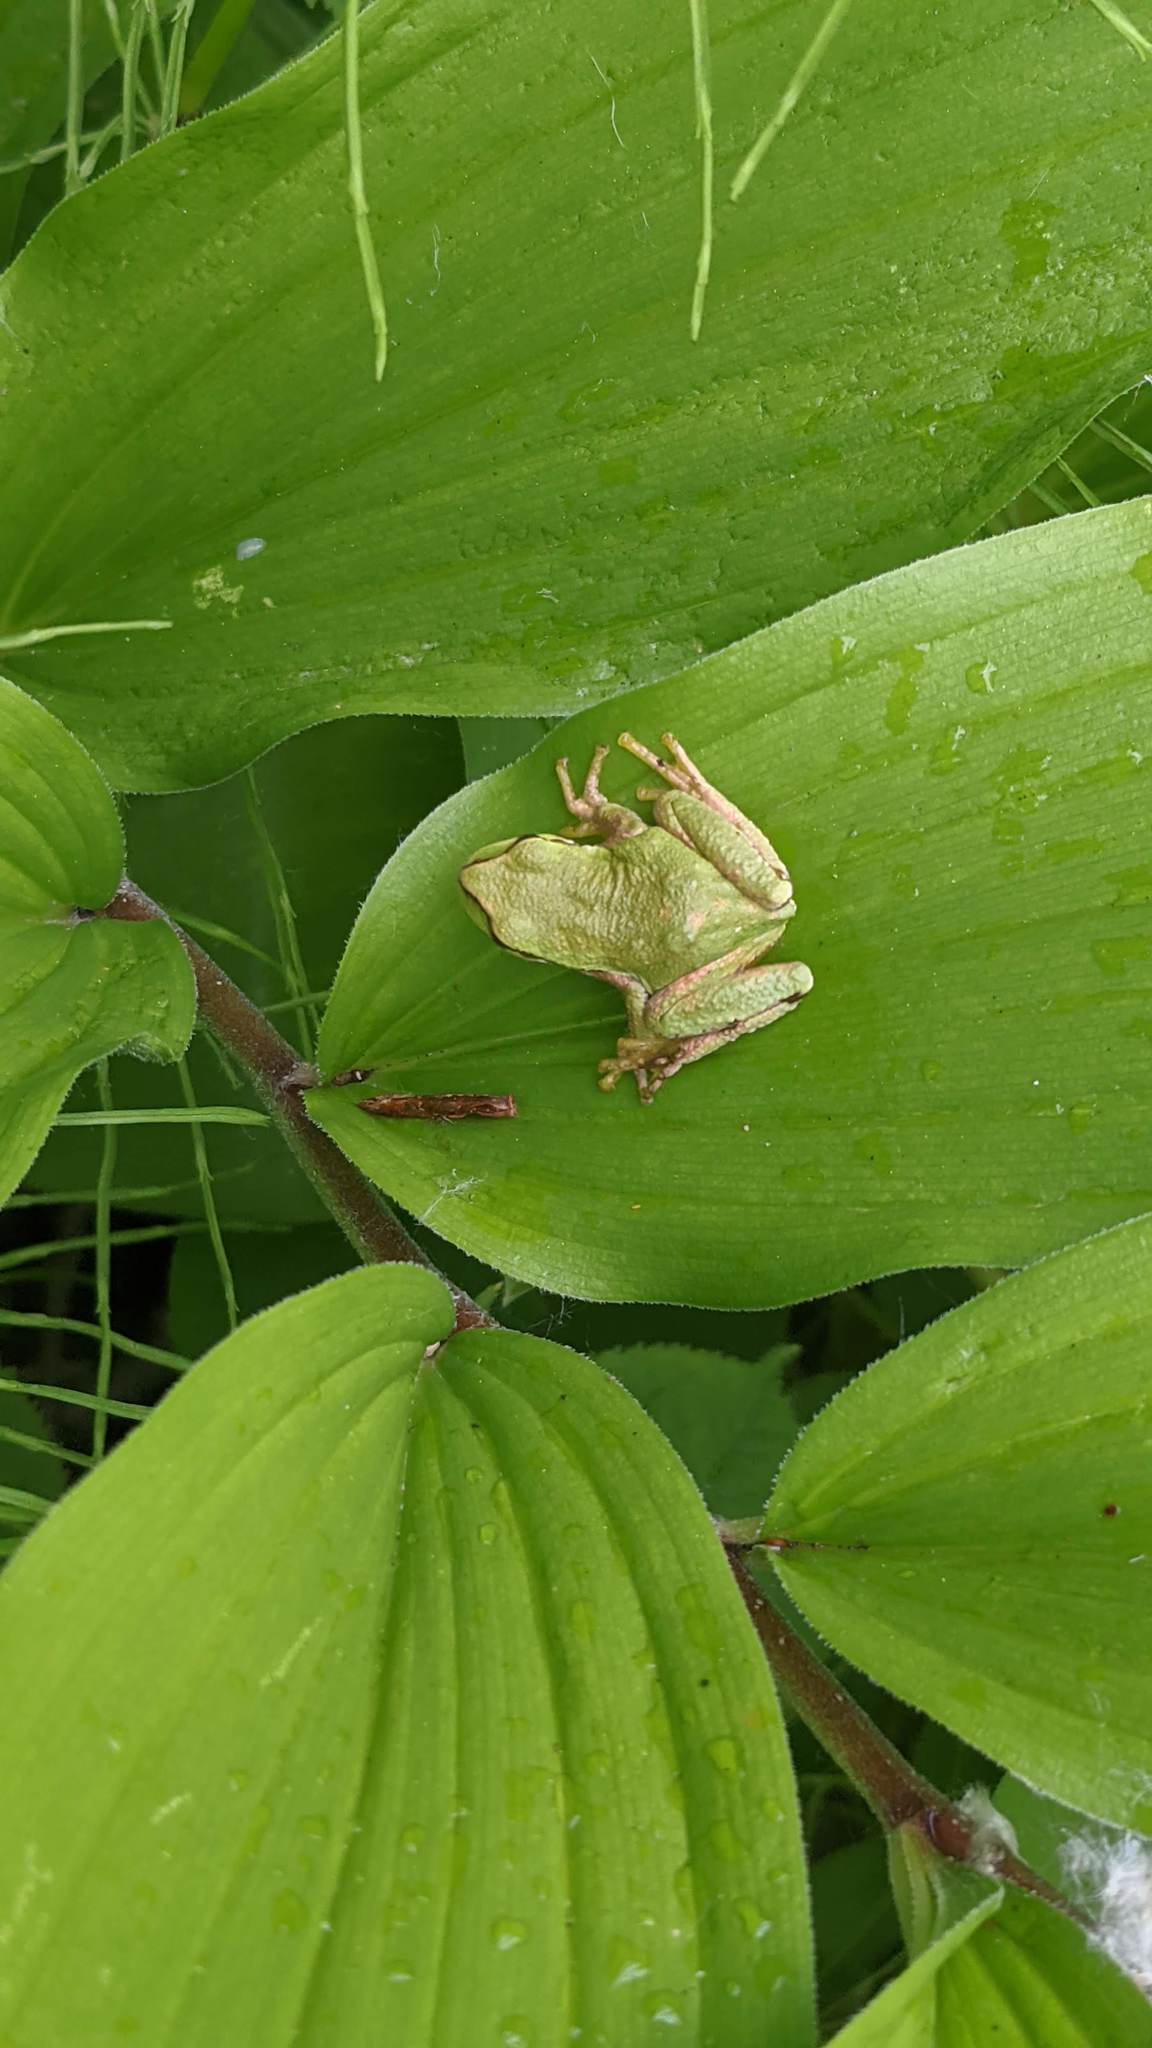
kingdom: Animalia
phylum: Chordata
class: Amphibia
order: Anura
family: Hylidae
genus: Pseudacris
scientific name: Pseudacris regilla
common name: Pacific chorus frog
